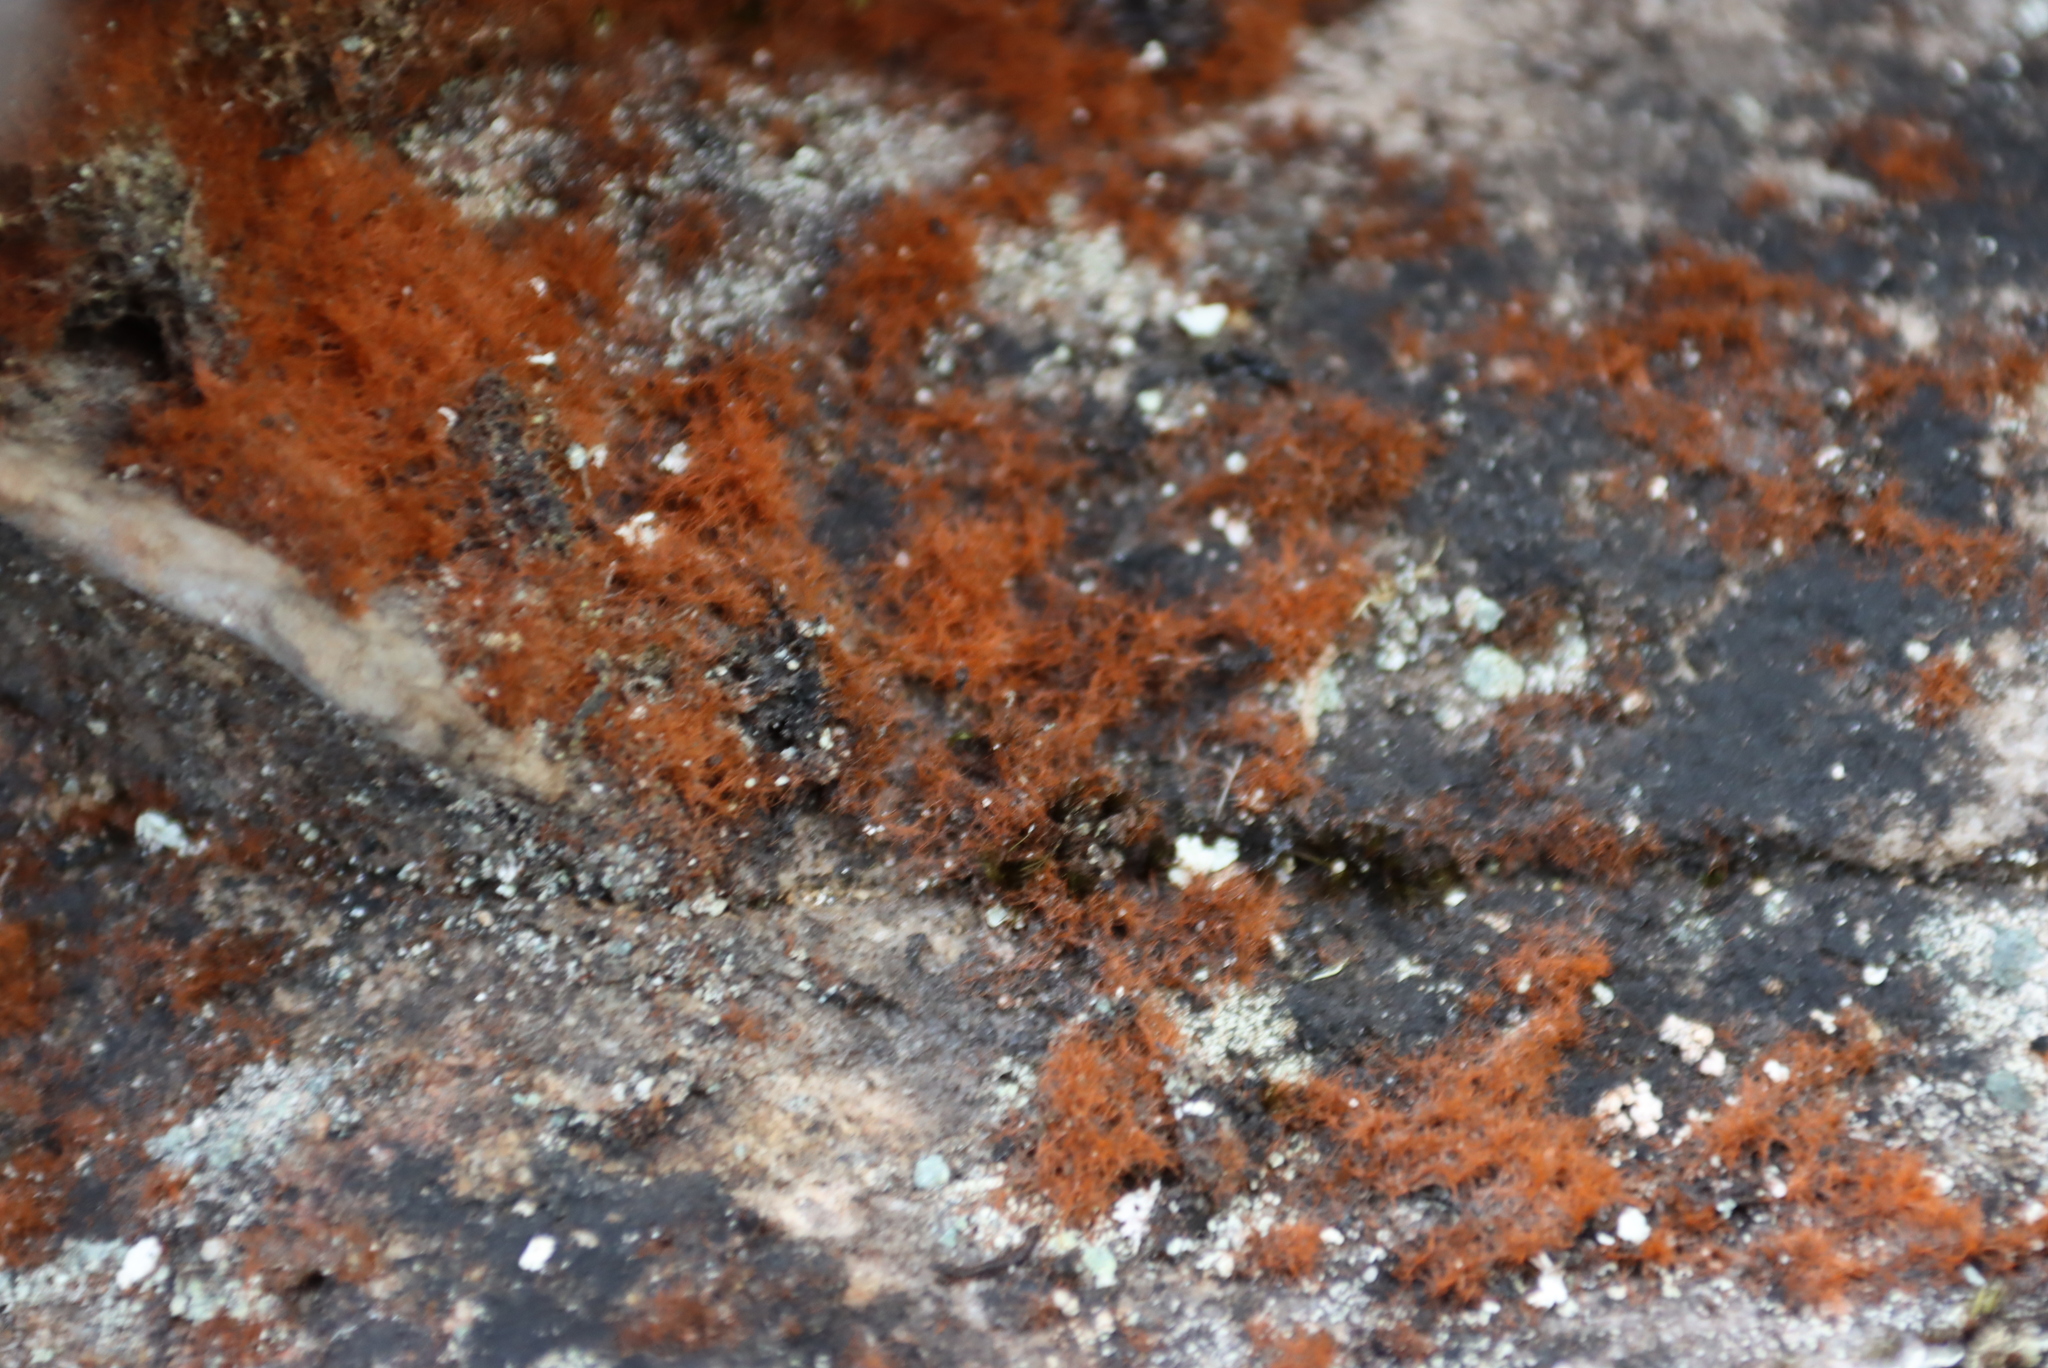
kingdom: Plantae
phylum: Chlorophyta
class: Ulvophyceae
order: Trentepohliales
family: Trentepohliaceae
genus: Trentepohlia
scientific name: Trentepohlia aurea
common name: Orange rock hair
